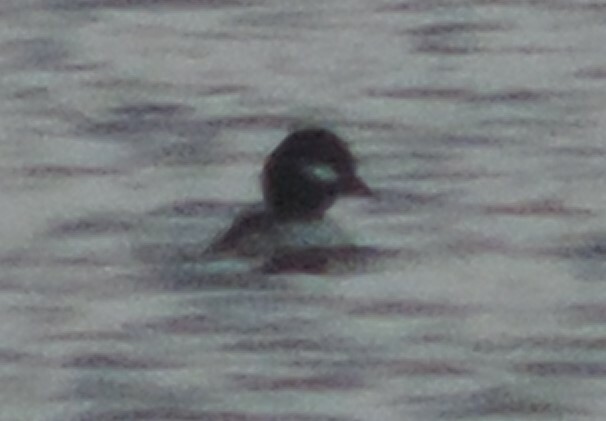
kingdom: Animalia
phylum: Chordata
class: Aves
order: Anseriformes
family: Anatidae
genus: Bucephala
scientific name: Bucephala albeola
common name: Bufflehead
